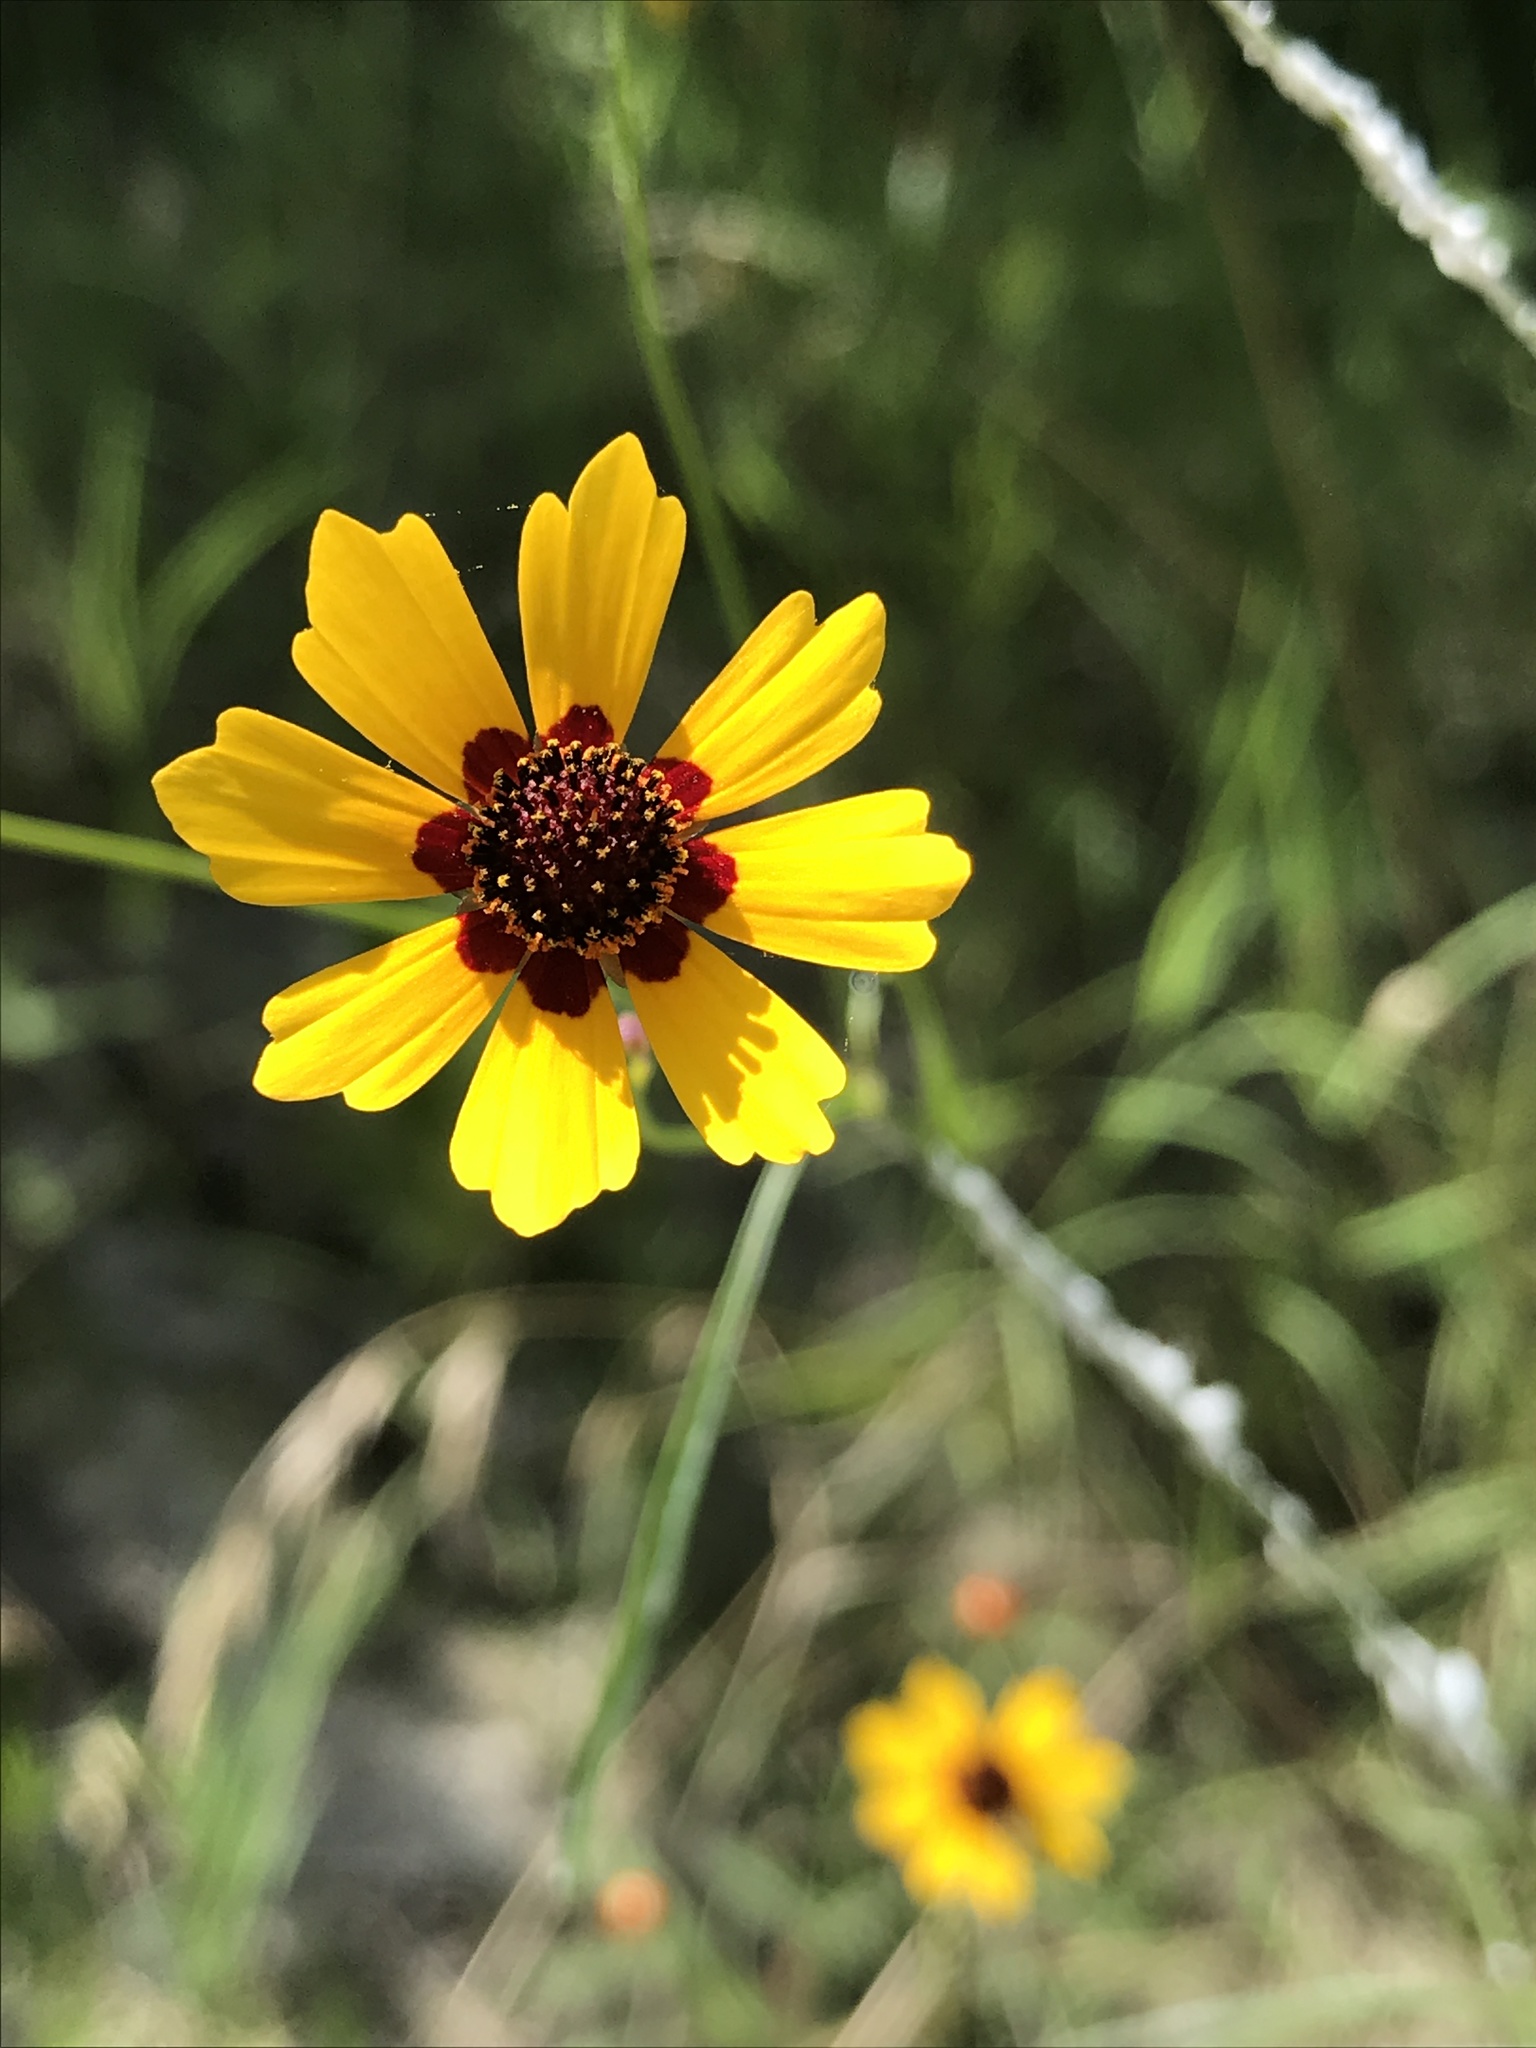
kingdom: Plantae
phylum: Tracheophyta
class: Magnoliopsida
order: Asterales
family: Asteraceae
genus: Coreopsis
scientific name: Coreopsis tinctoria
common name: Garden tickseed
